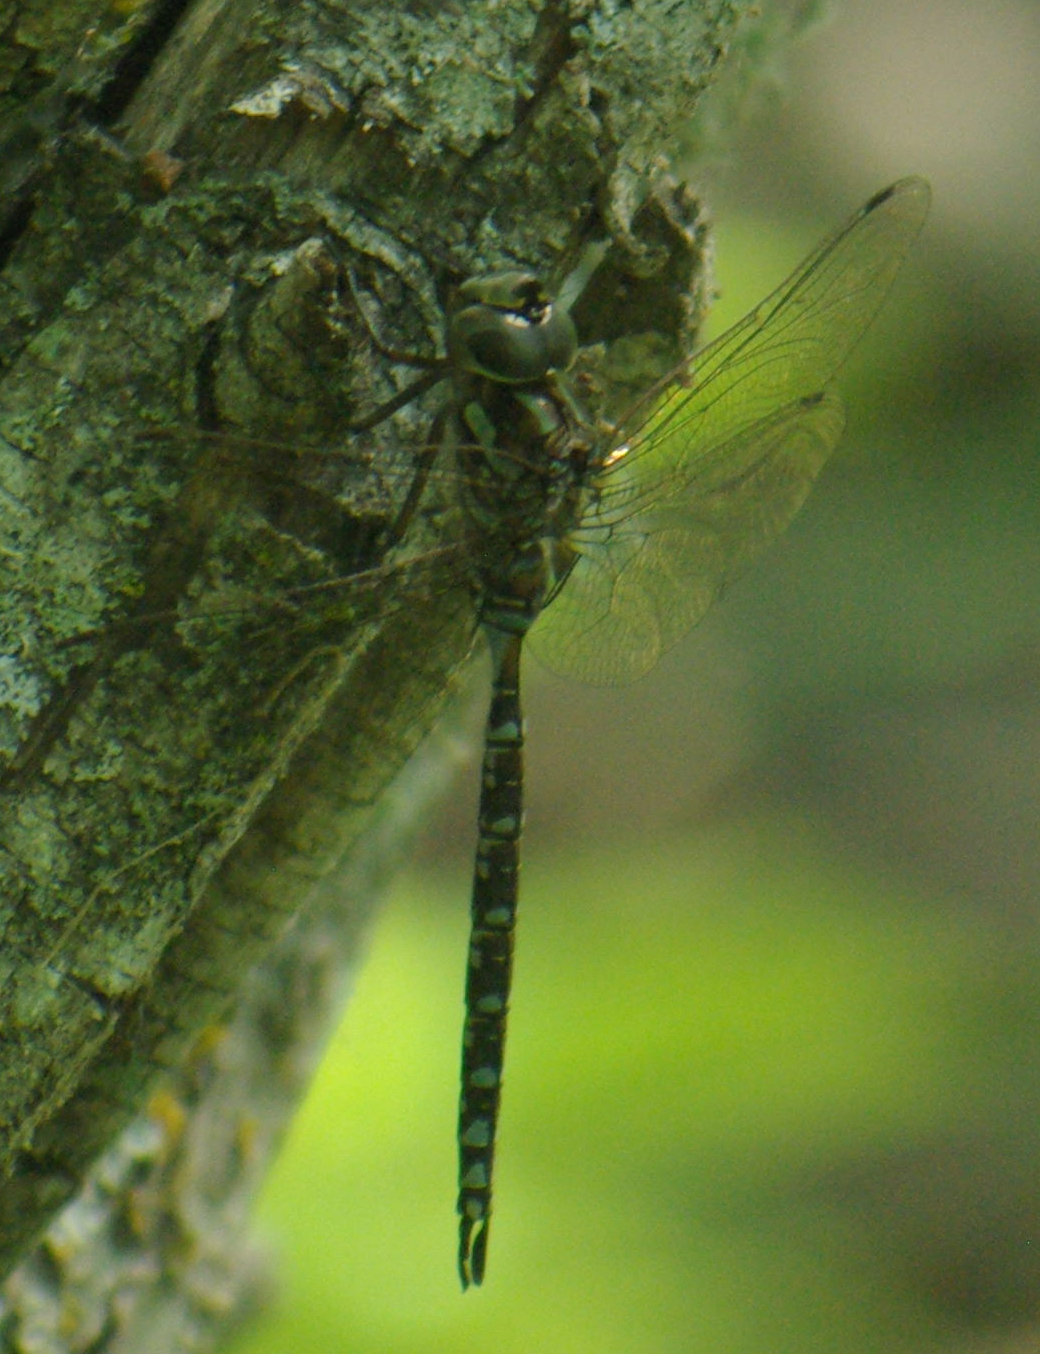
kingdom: Animalia
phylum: Arthropoda
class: Insecta
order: Odonata
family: Aeshnidae
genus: Aeshna
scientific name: Aeshna canadensis
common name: Canada darner
